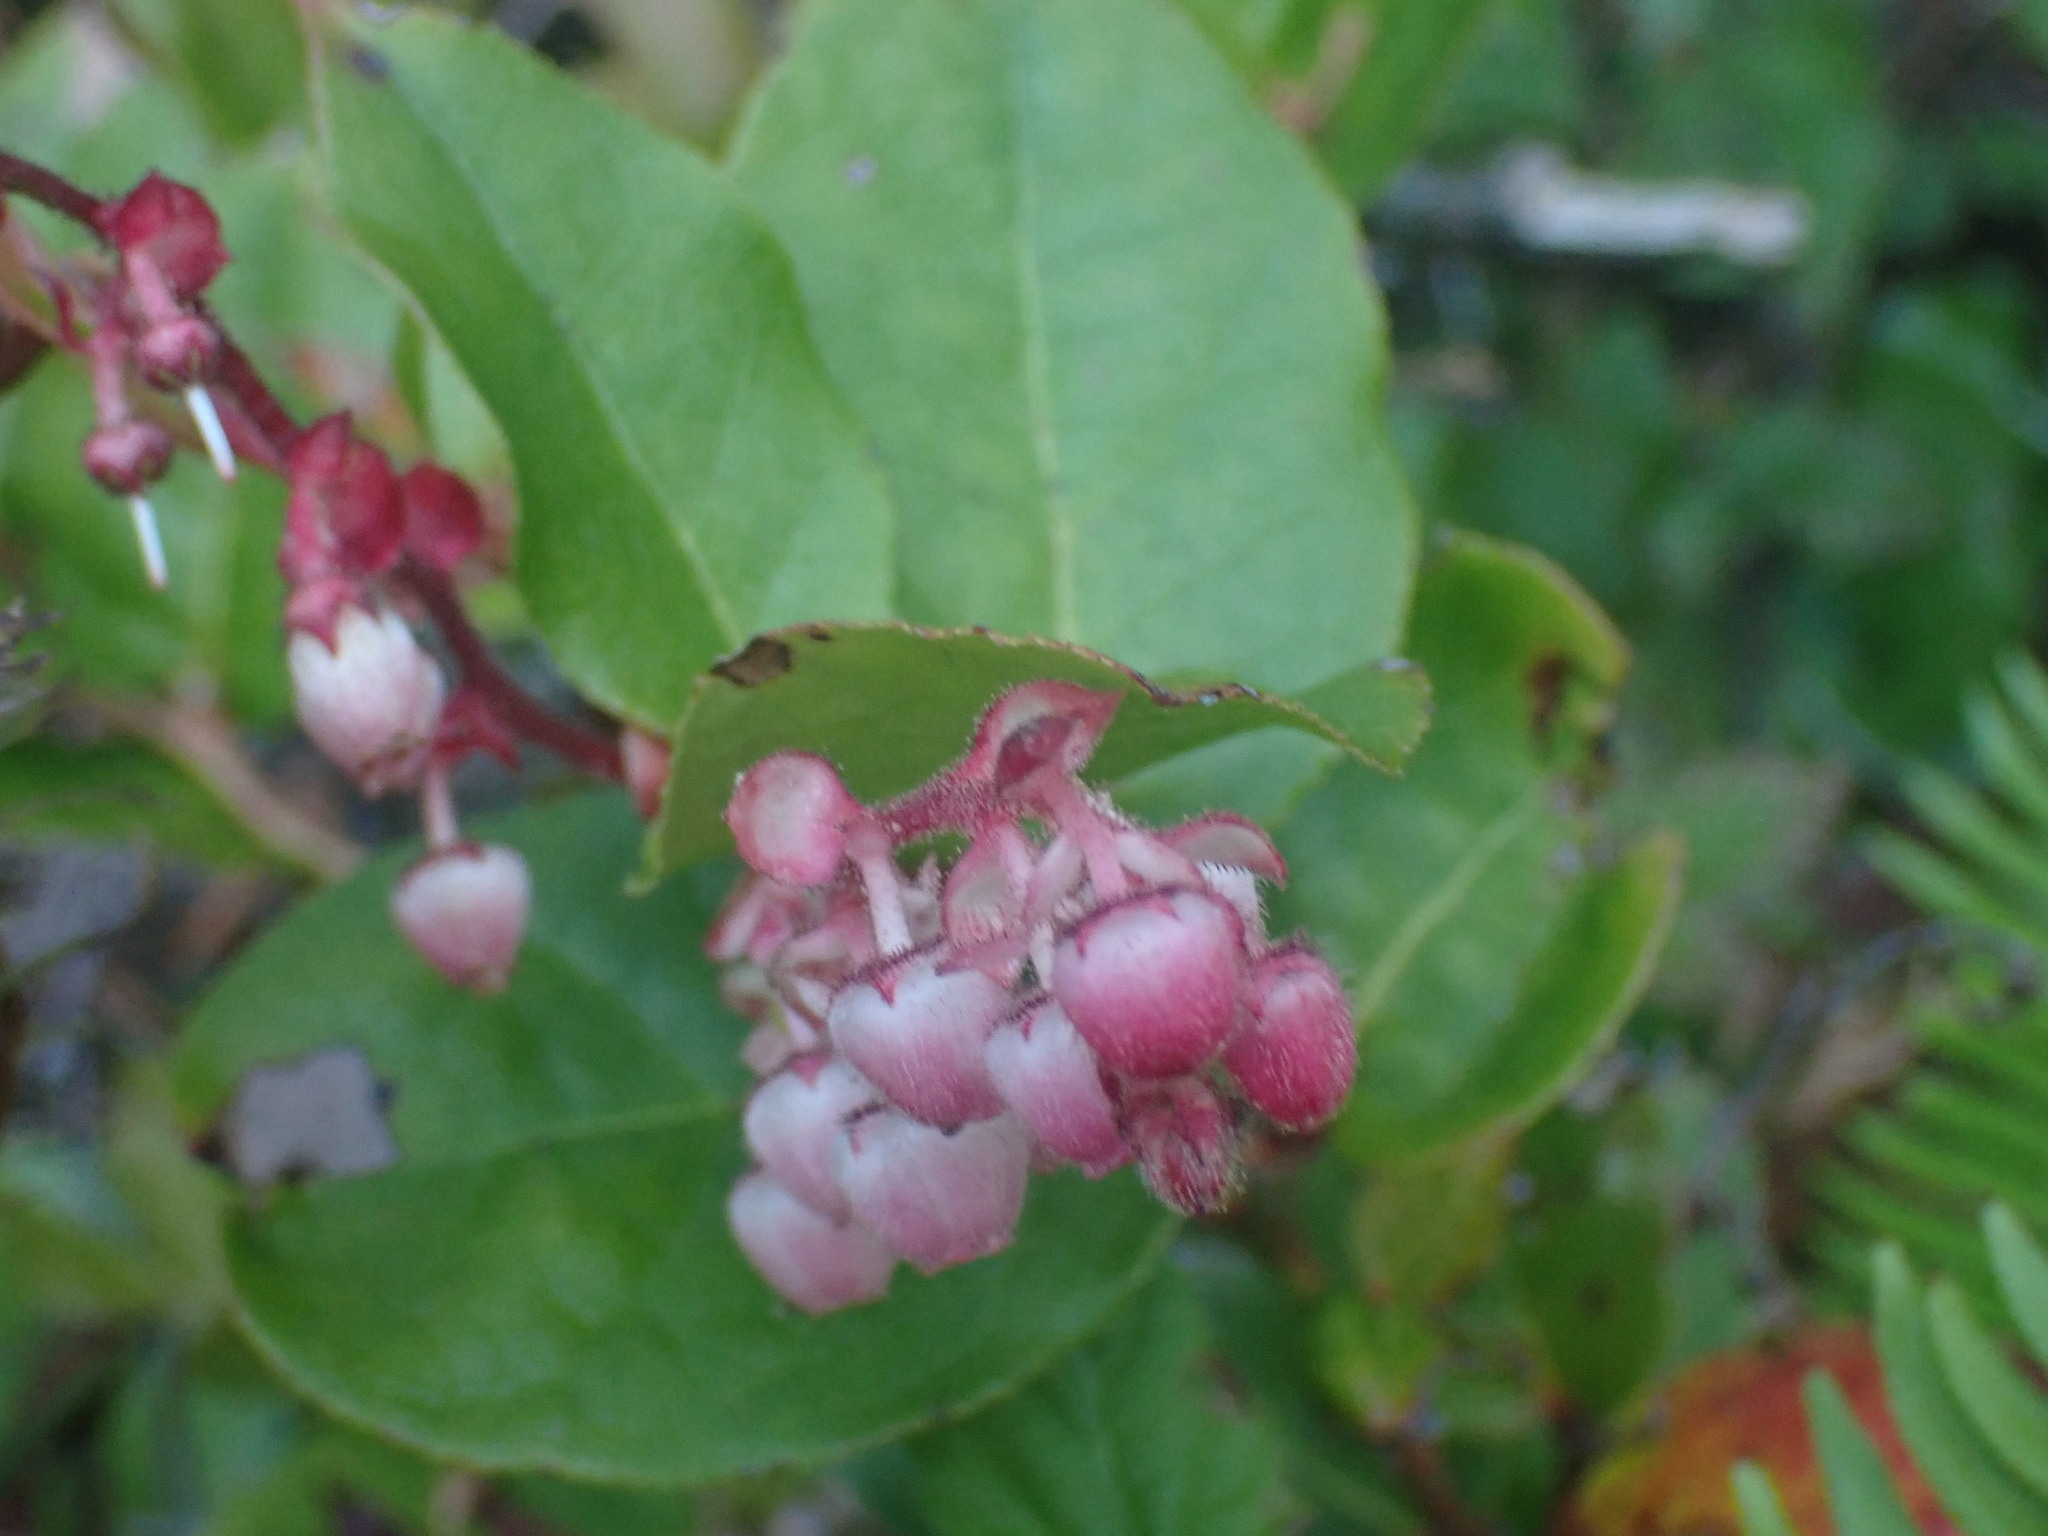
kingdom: Plantae
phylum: Tracheophyta
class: Magnoliopsida
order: Ericales
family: Ericaceae
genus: Gaultheria
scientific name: Gaultheria shallon
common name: Shallon
